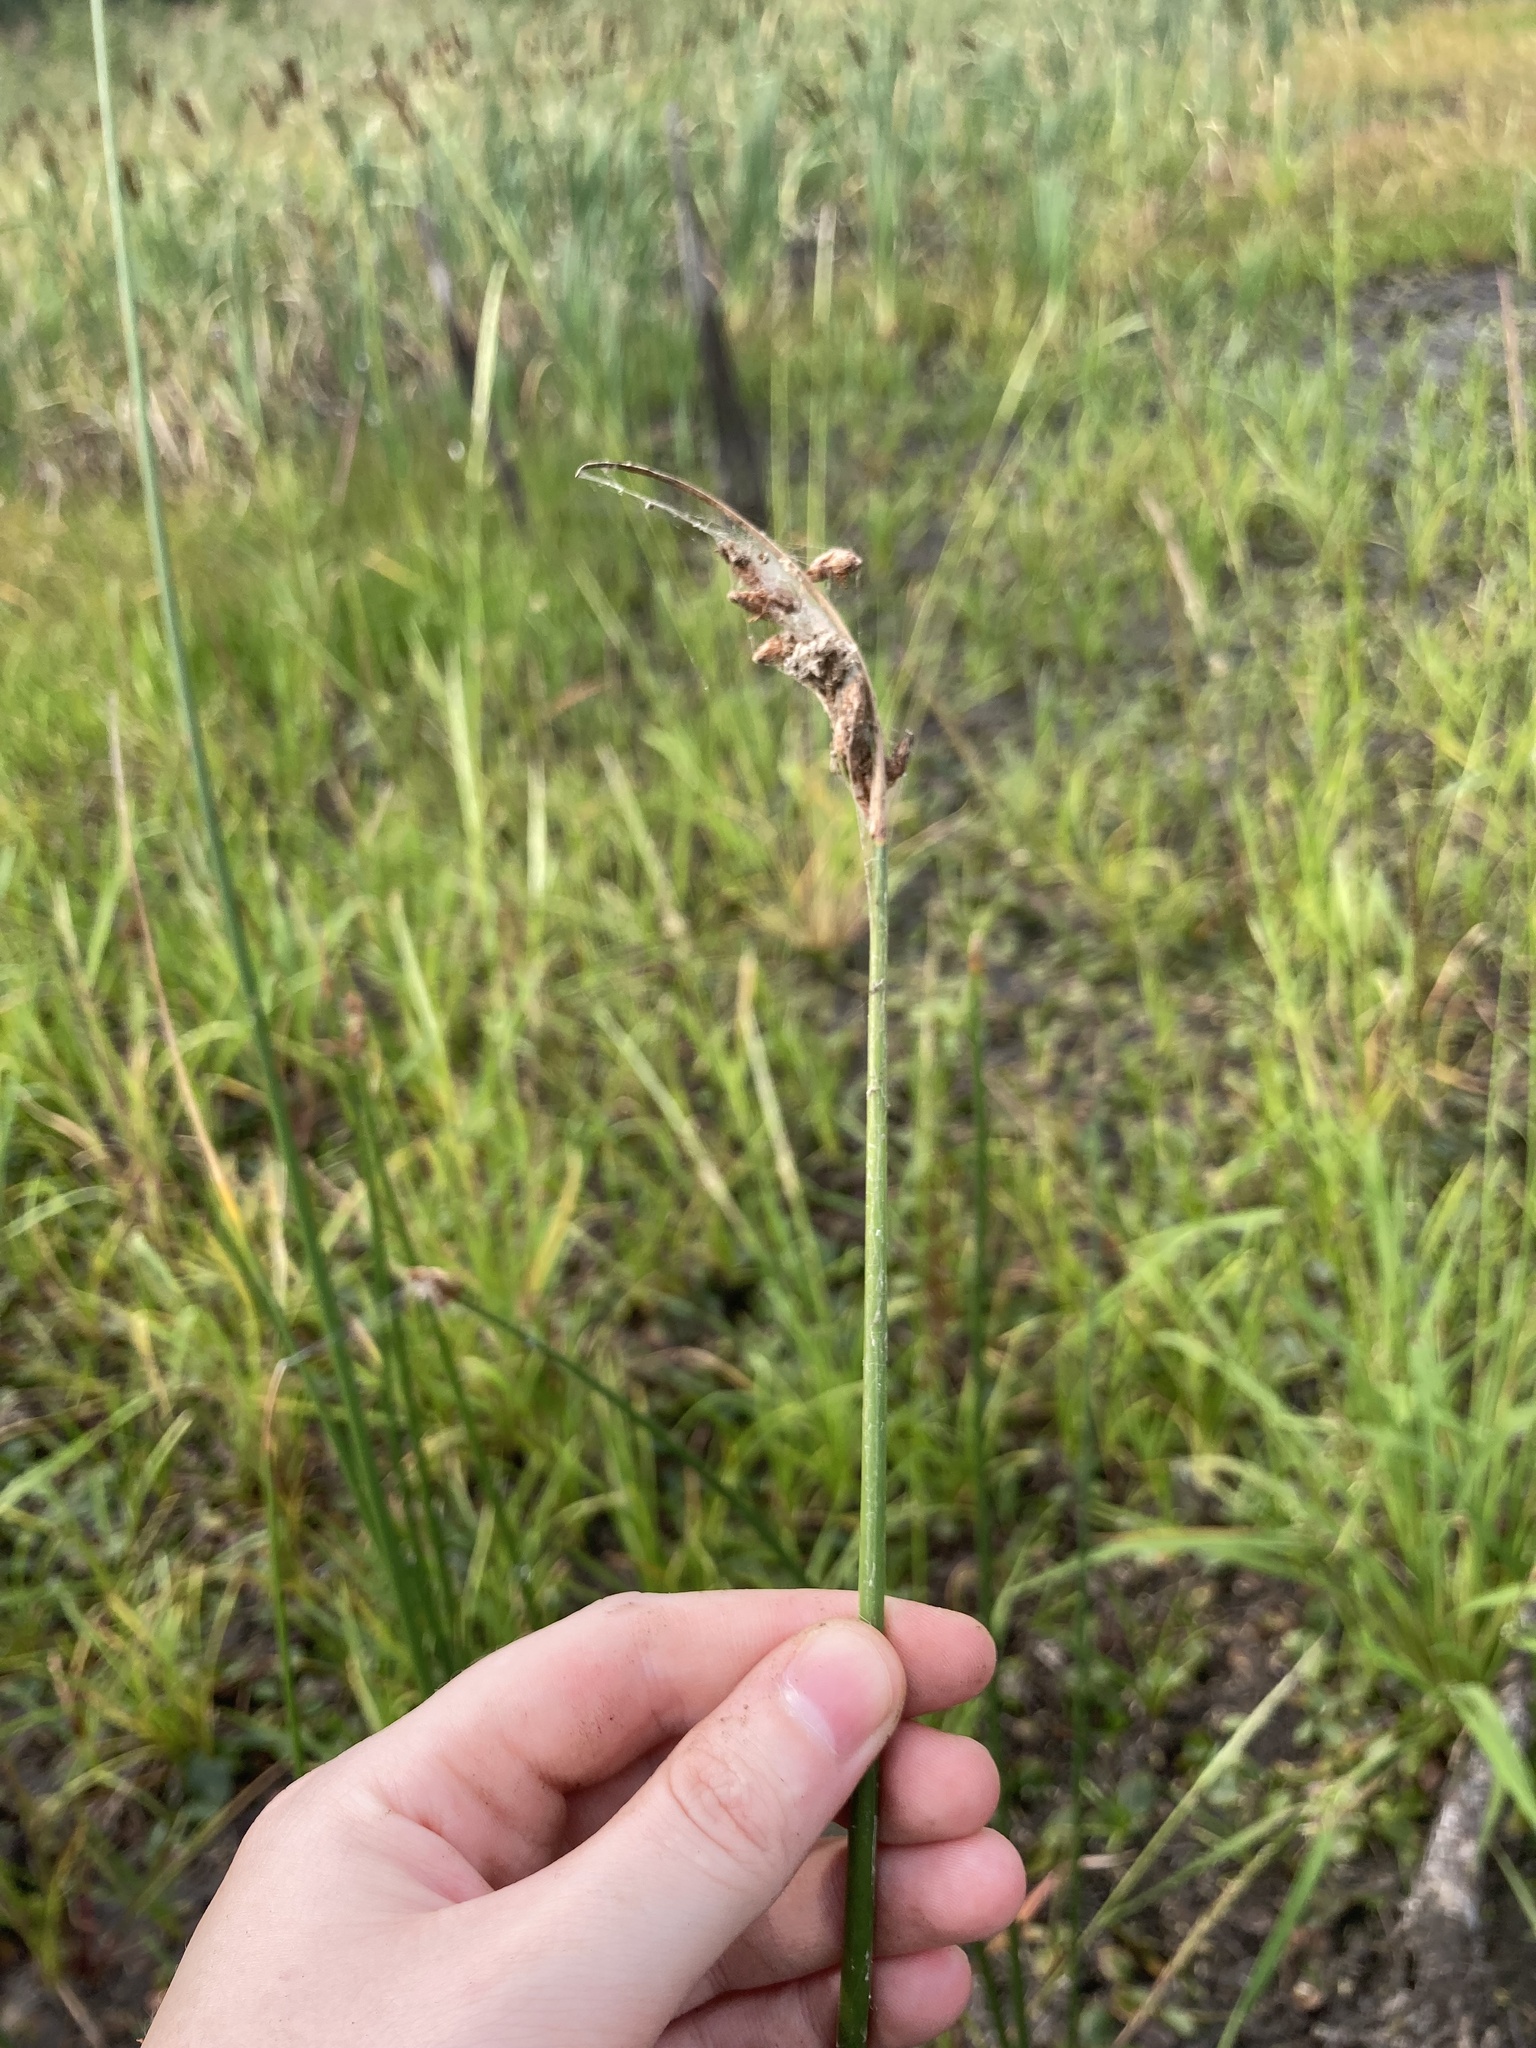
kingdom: Plantae
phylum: Tracheophyta
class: Liliopsida
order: Poales
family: Cyperaceae
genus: Schoenoplectus
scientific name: Schoenoplectus lacustris
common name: Common club-rush
